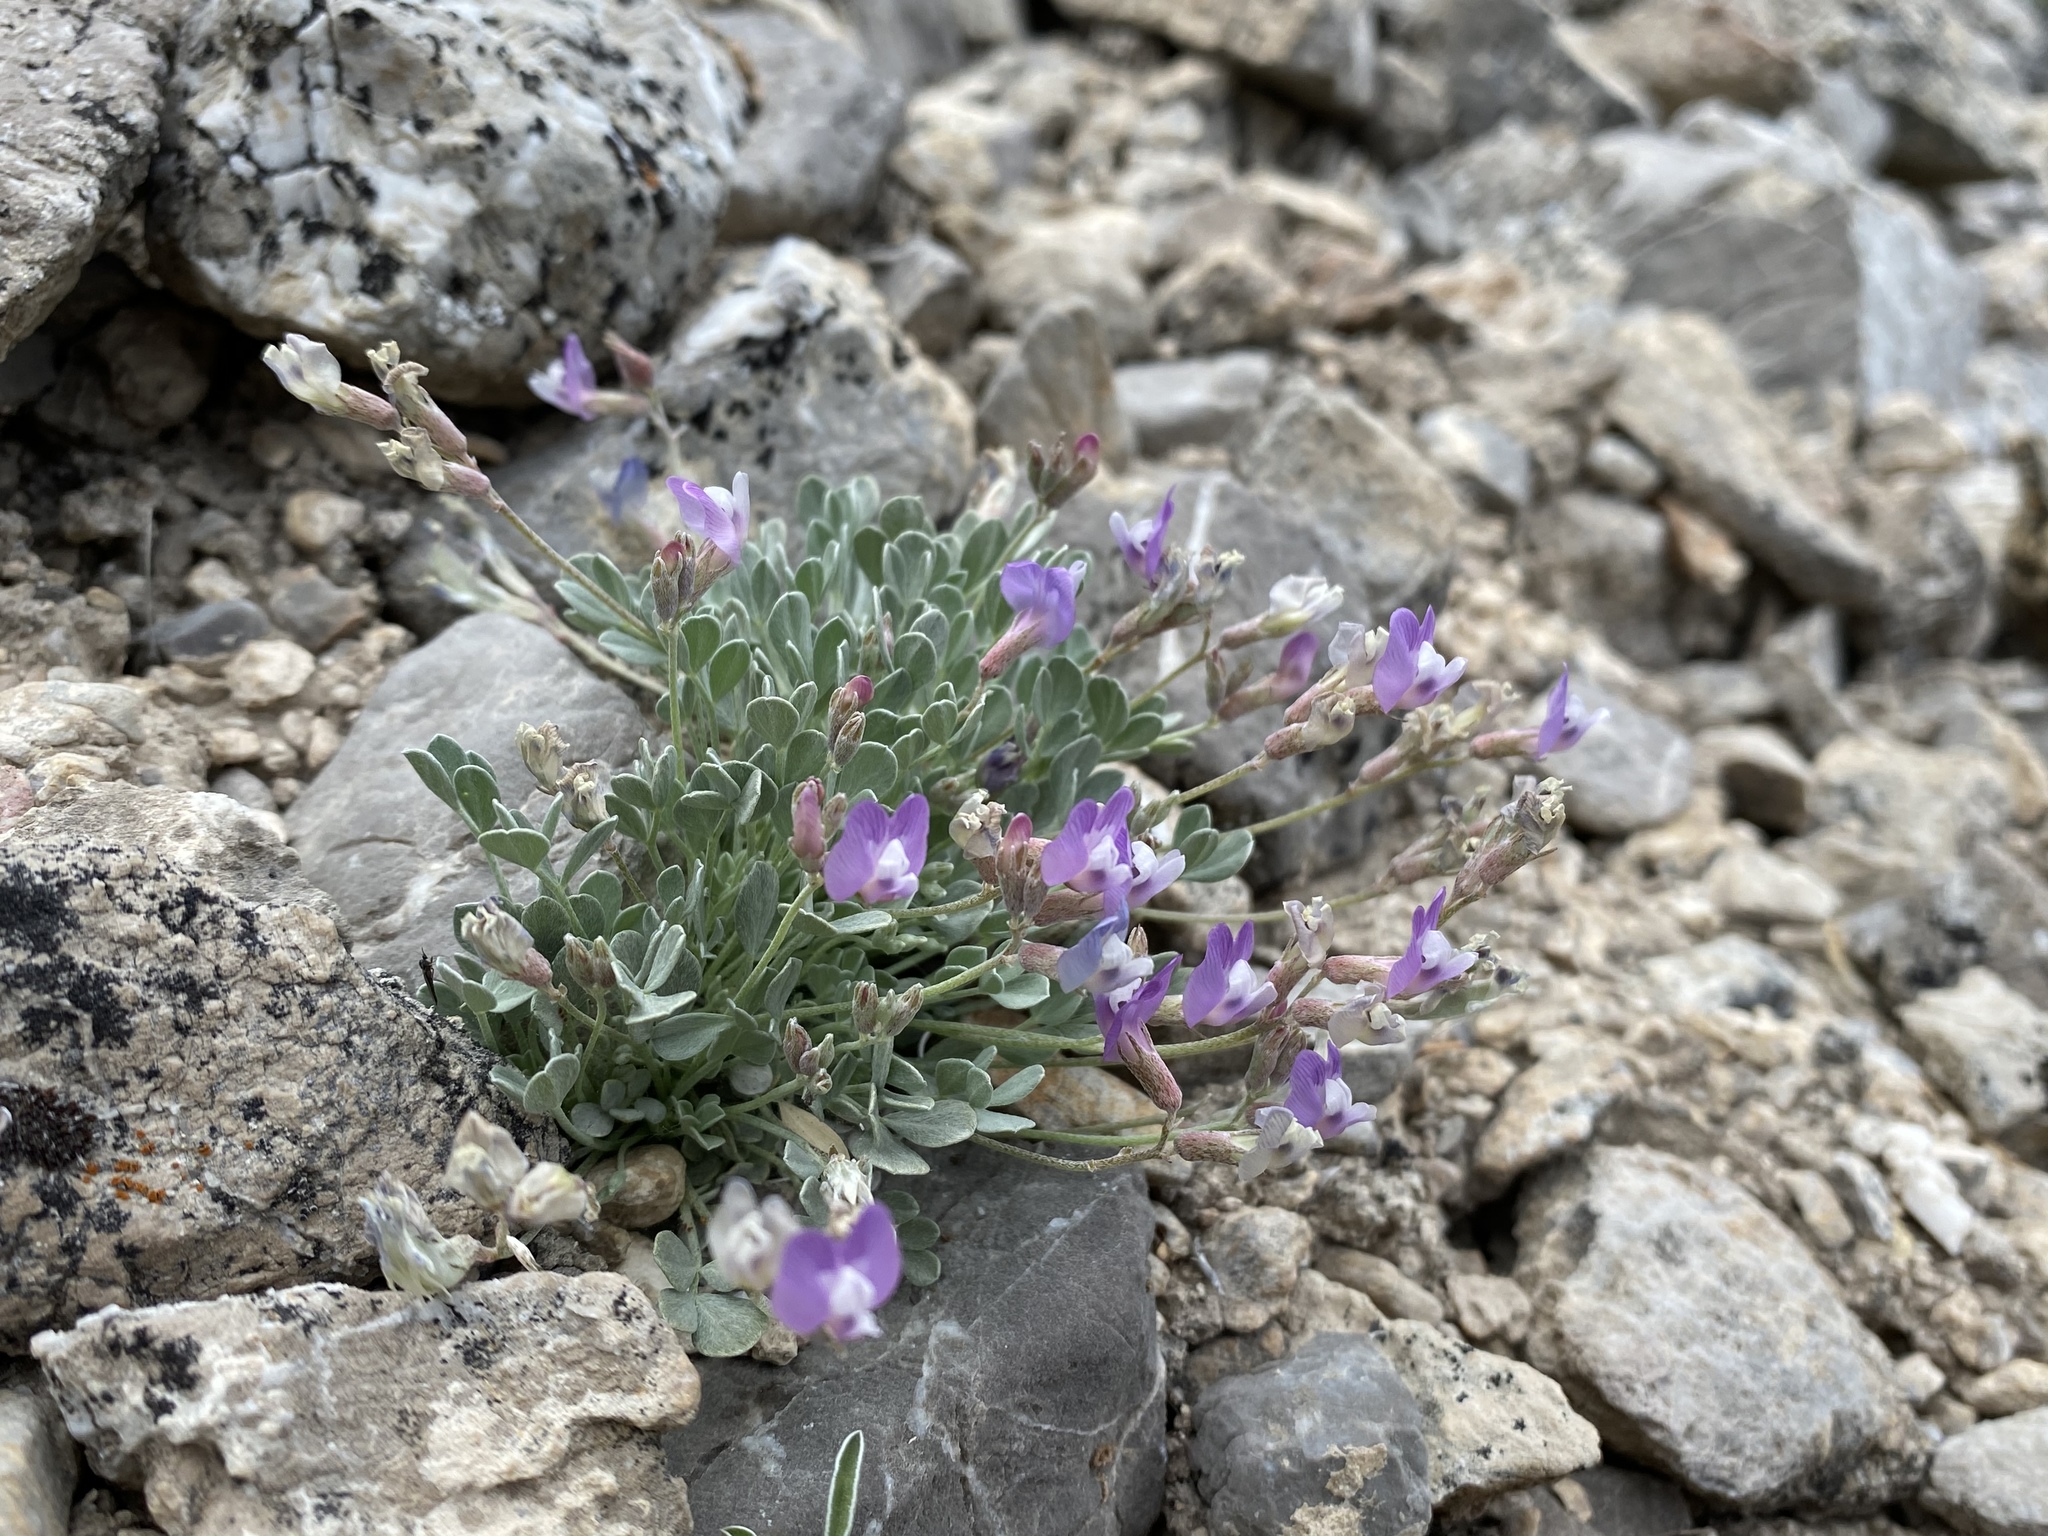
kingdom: Plantae
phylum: Tracheophyta
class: Magnoliopsida
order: Fabales
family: Fabaceae
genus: Astragalus
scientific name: Astragalus calycosus
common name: King's milkvetch
